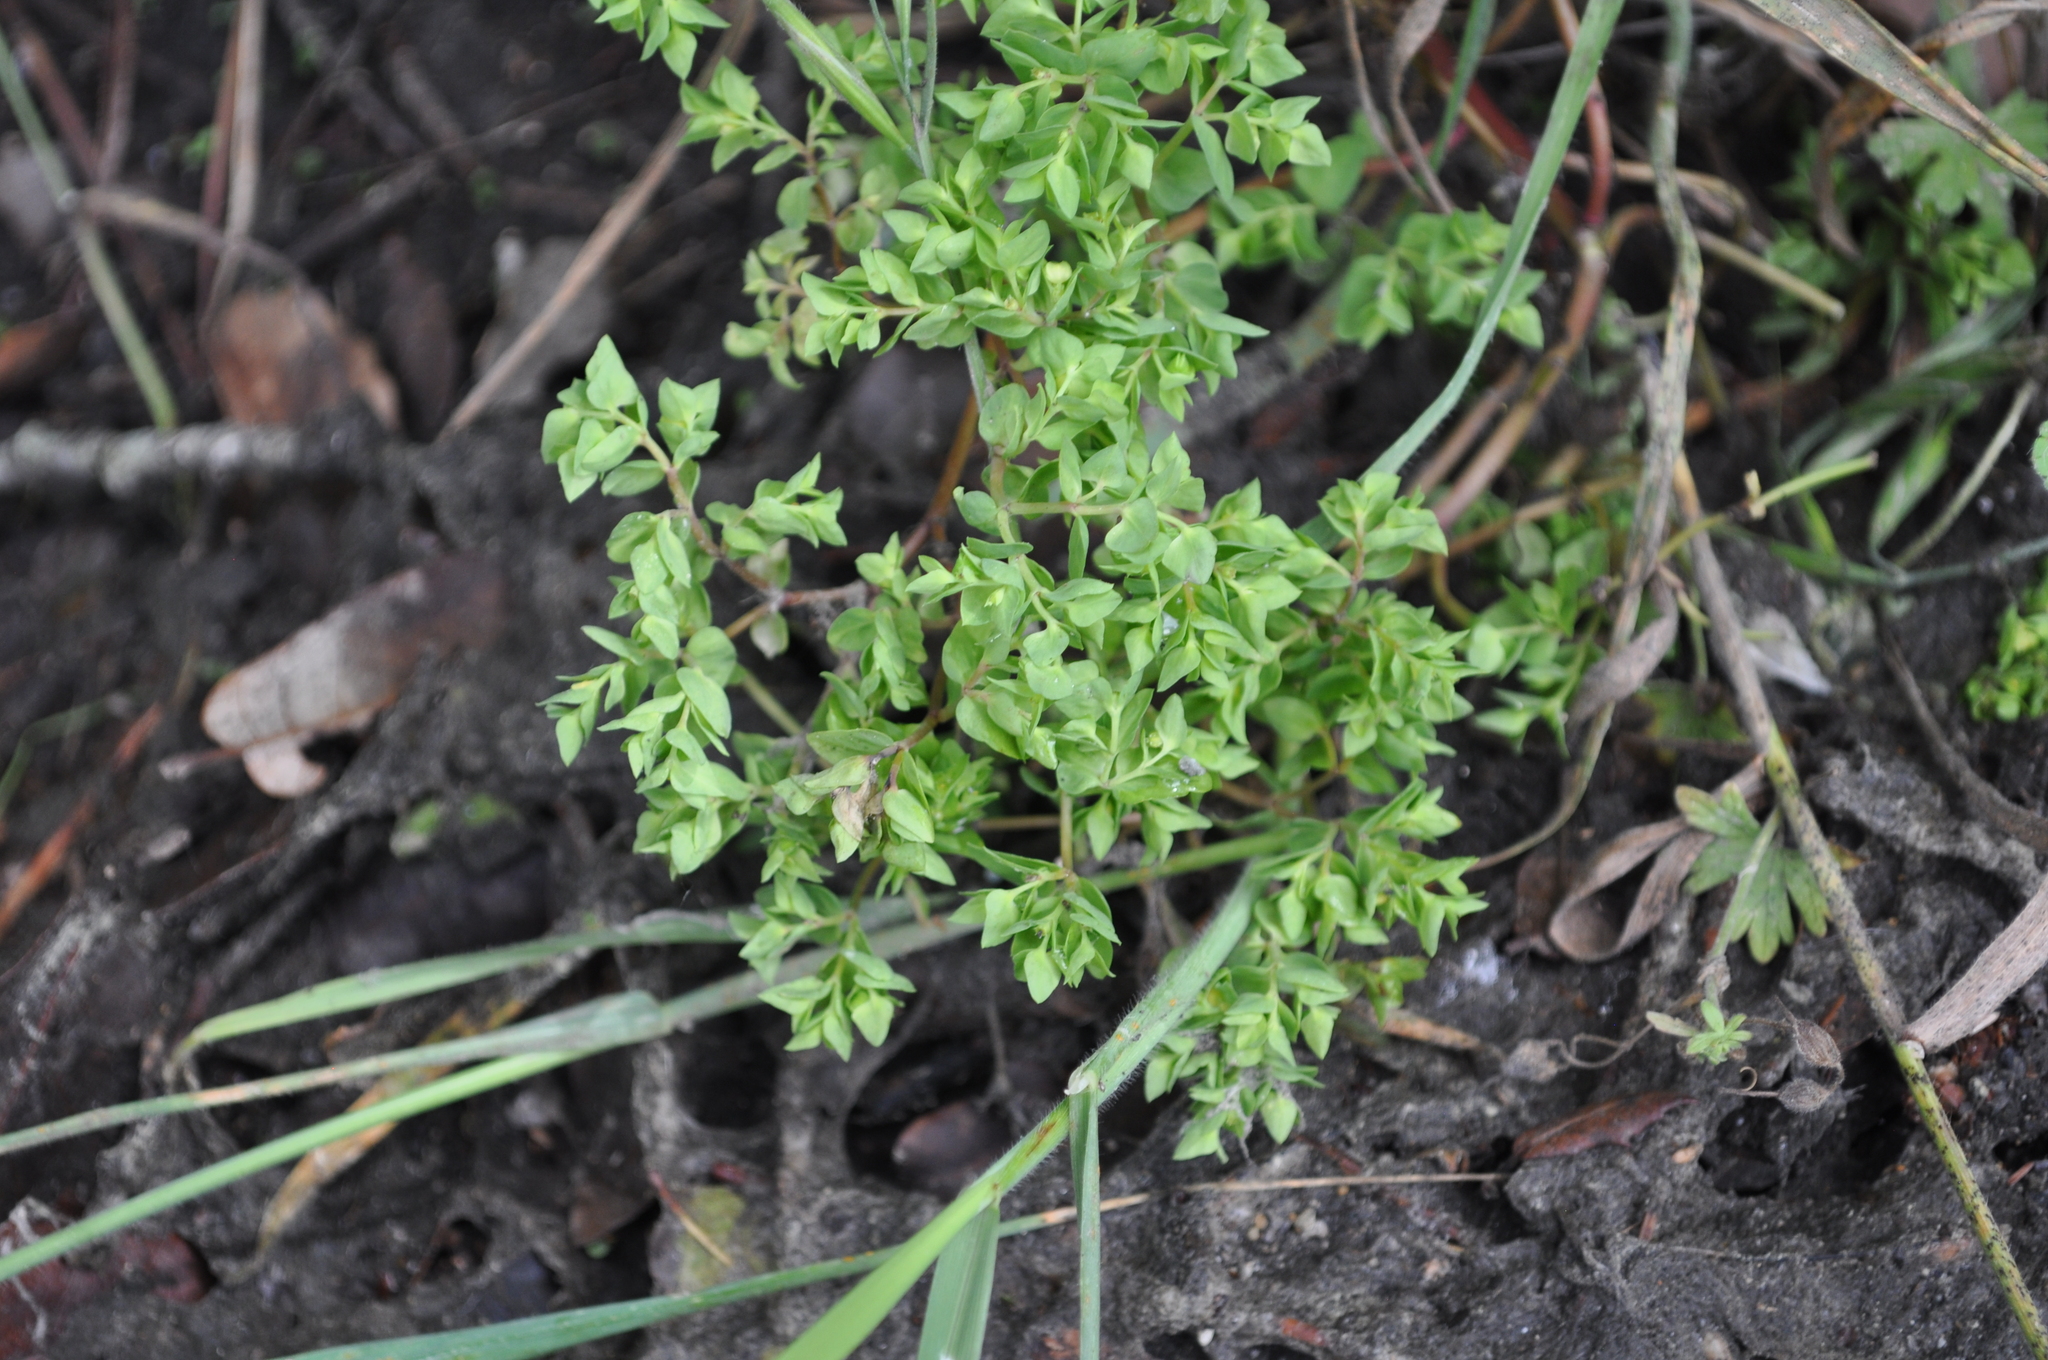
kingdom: Plantae
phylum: Tracheophyta
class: Magnoliopsida
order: Malpighiales
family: Euphorbiaceae
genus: Euphorbia
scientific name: Euphorbia peplus
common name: Petty spurge
